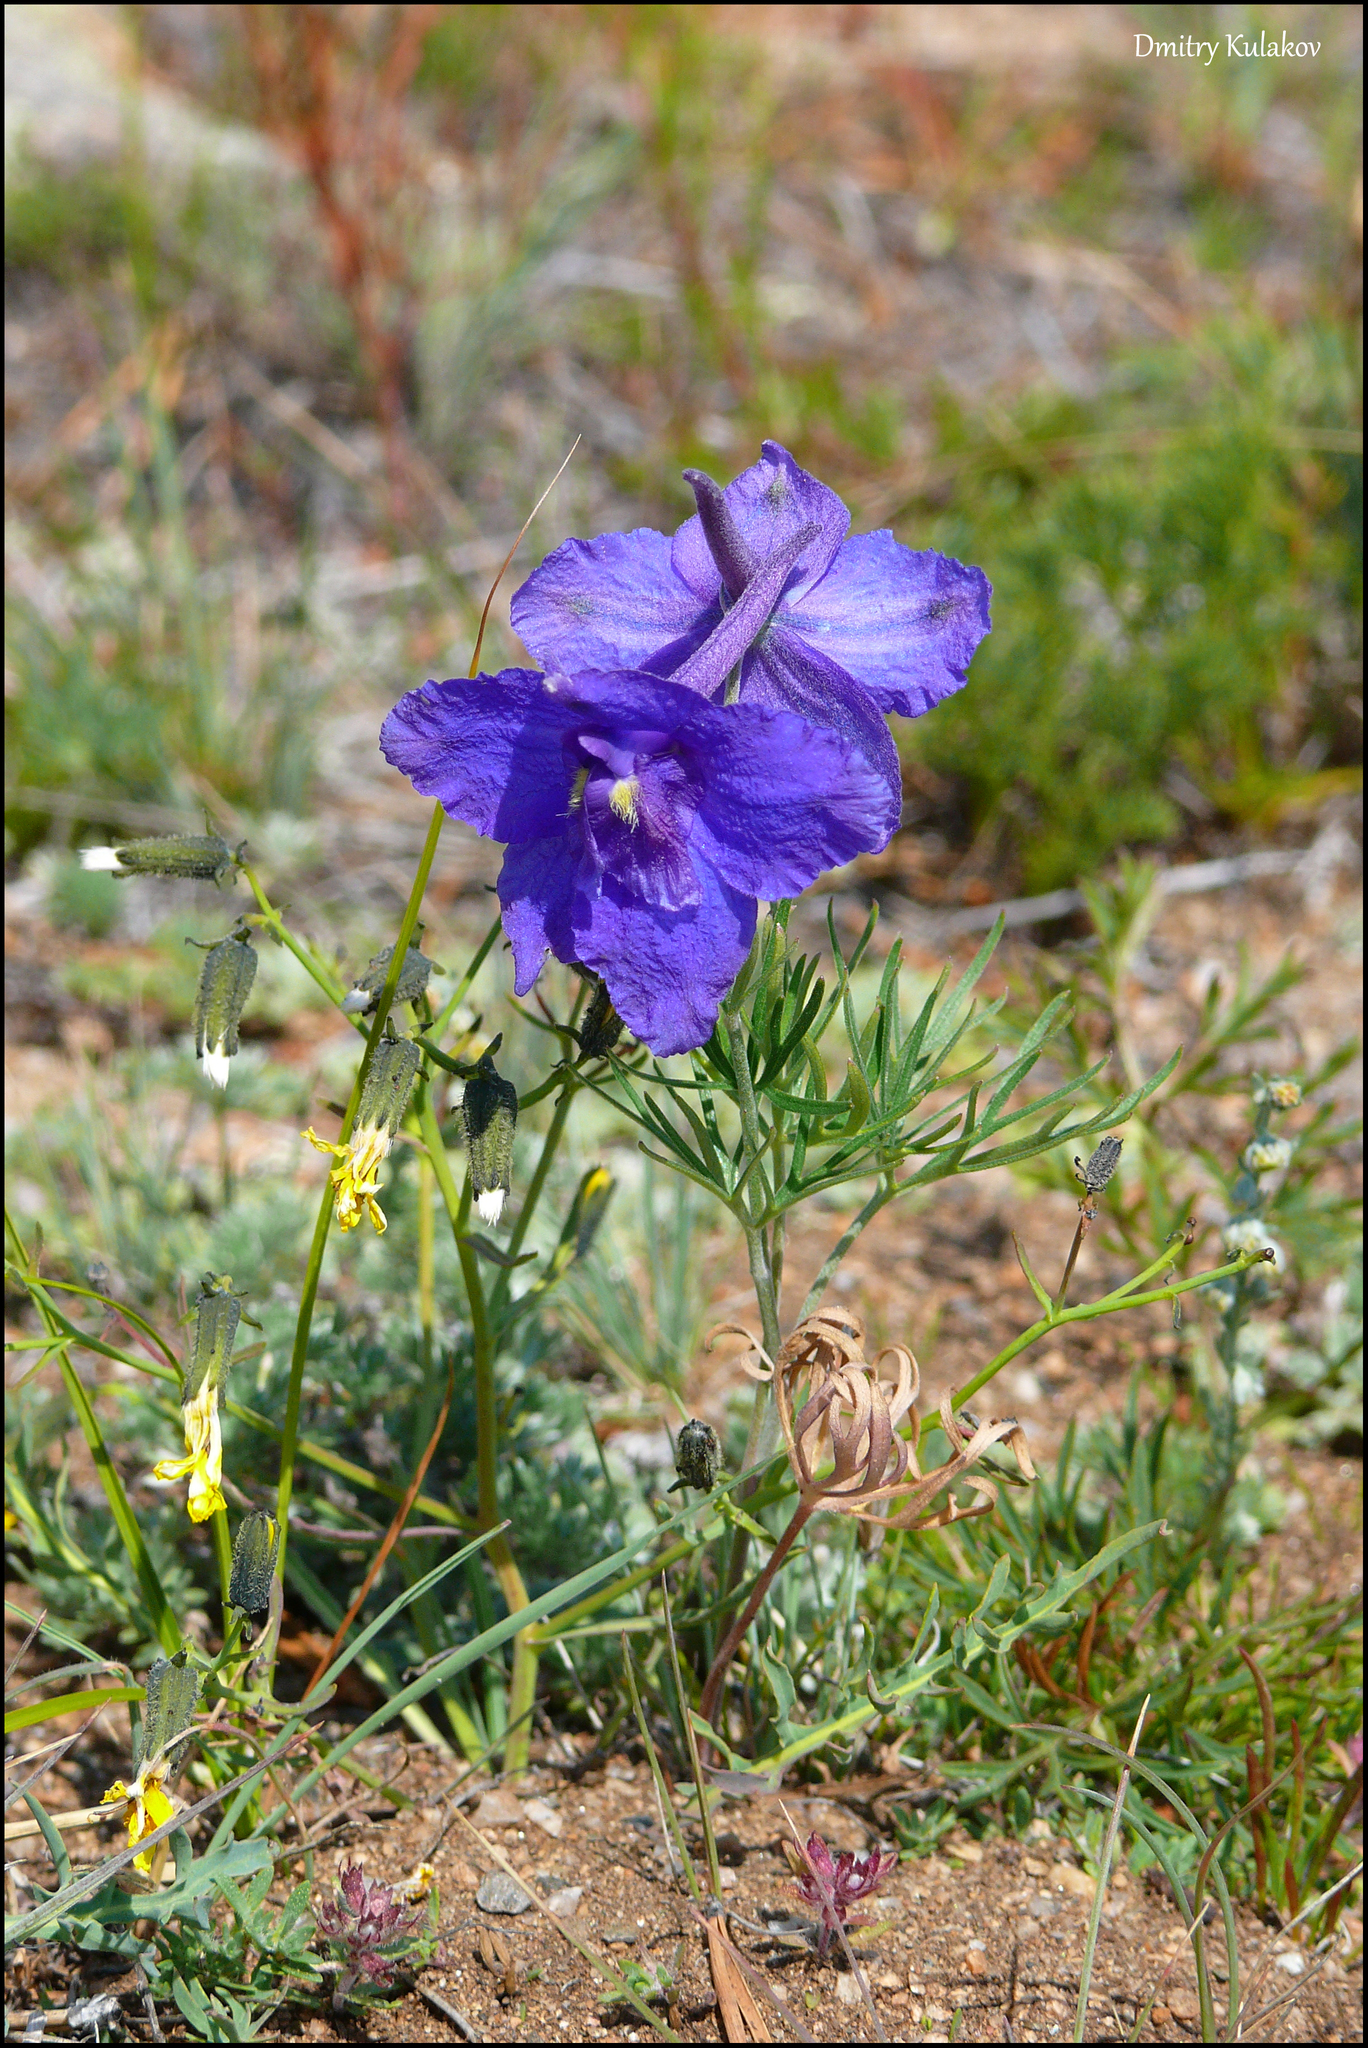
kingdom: Plantae
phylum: Tracheophyta
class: Magnoliopsida
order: Ranunculales
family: Ranunculaceae
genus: Delphinium
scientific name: Delphinium grandiflorum
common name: Siberian larkspur
